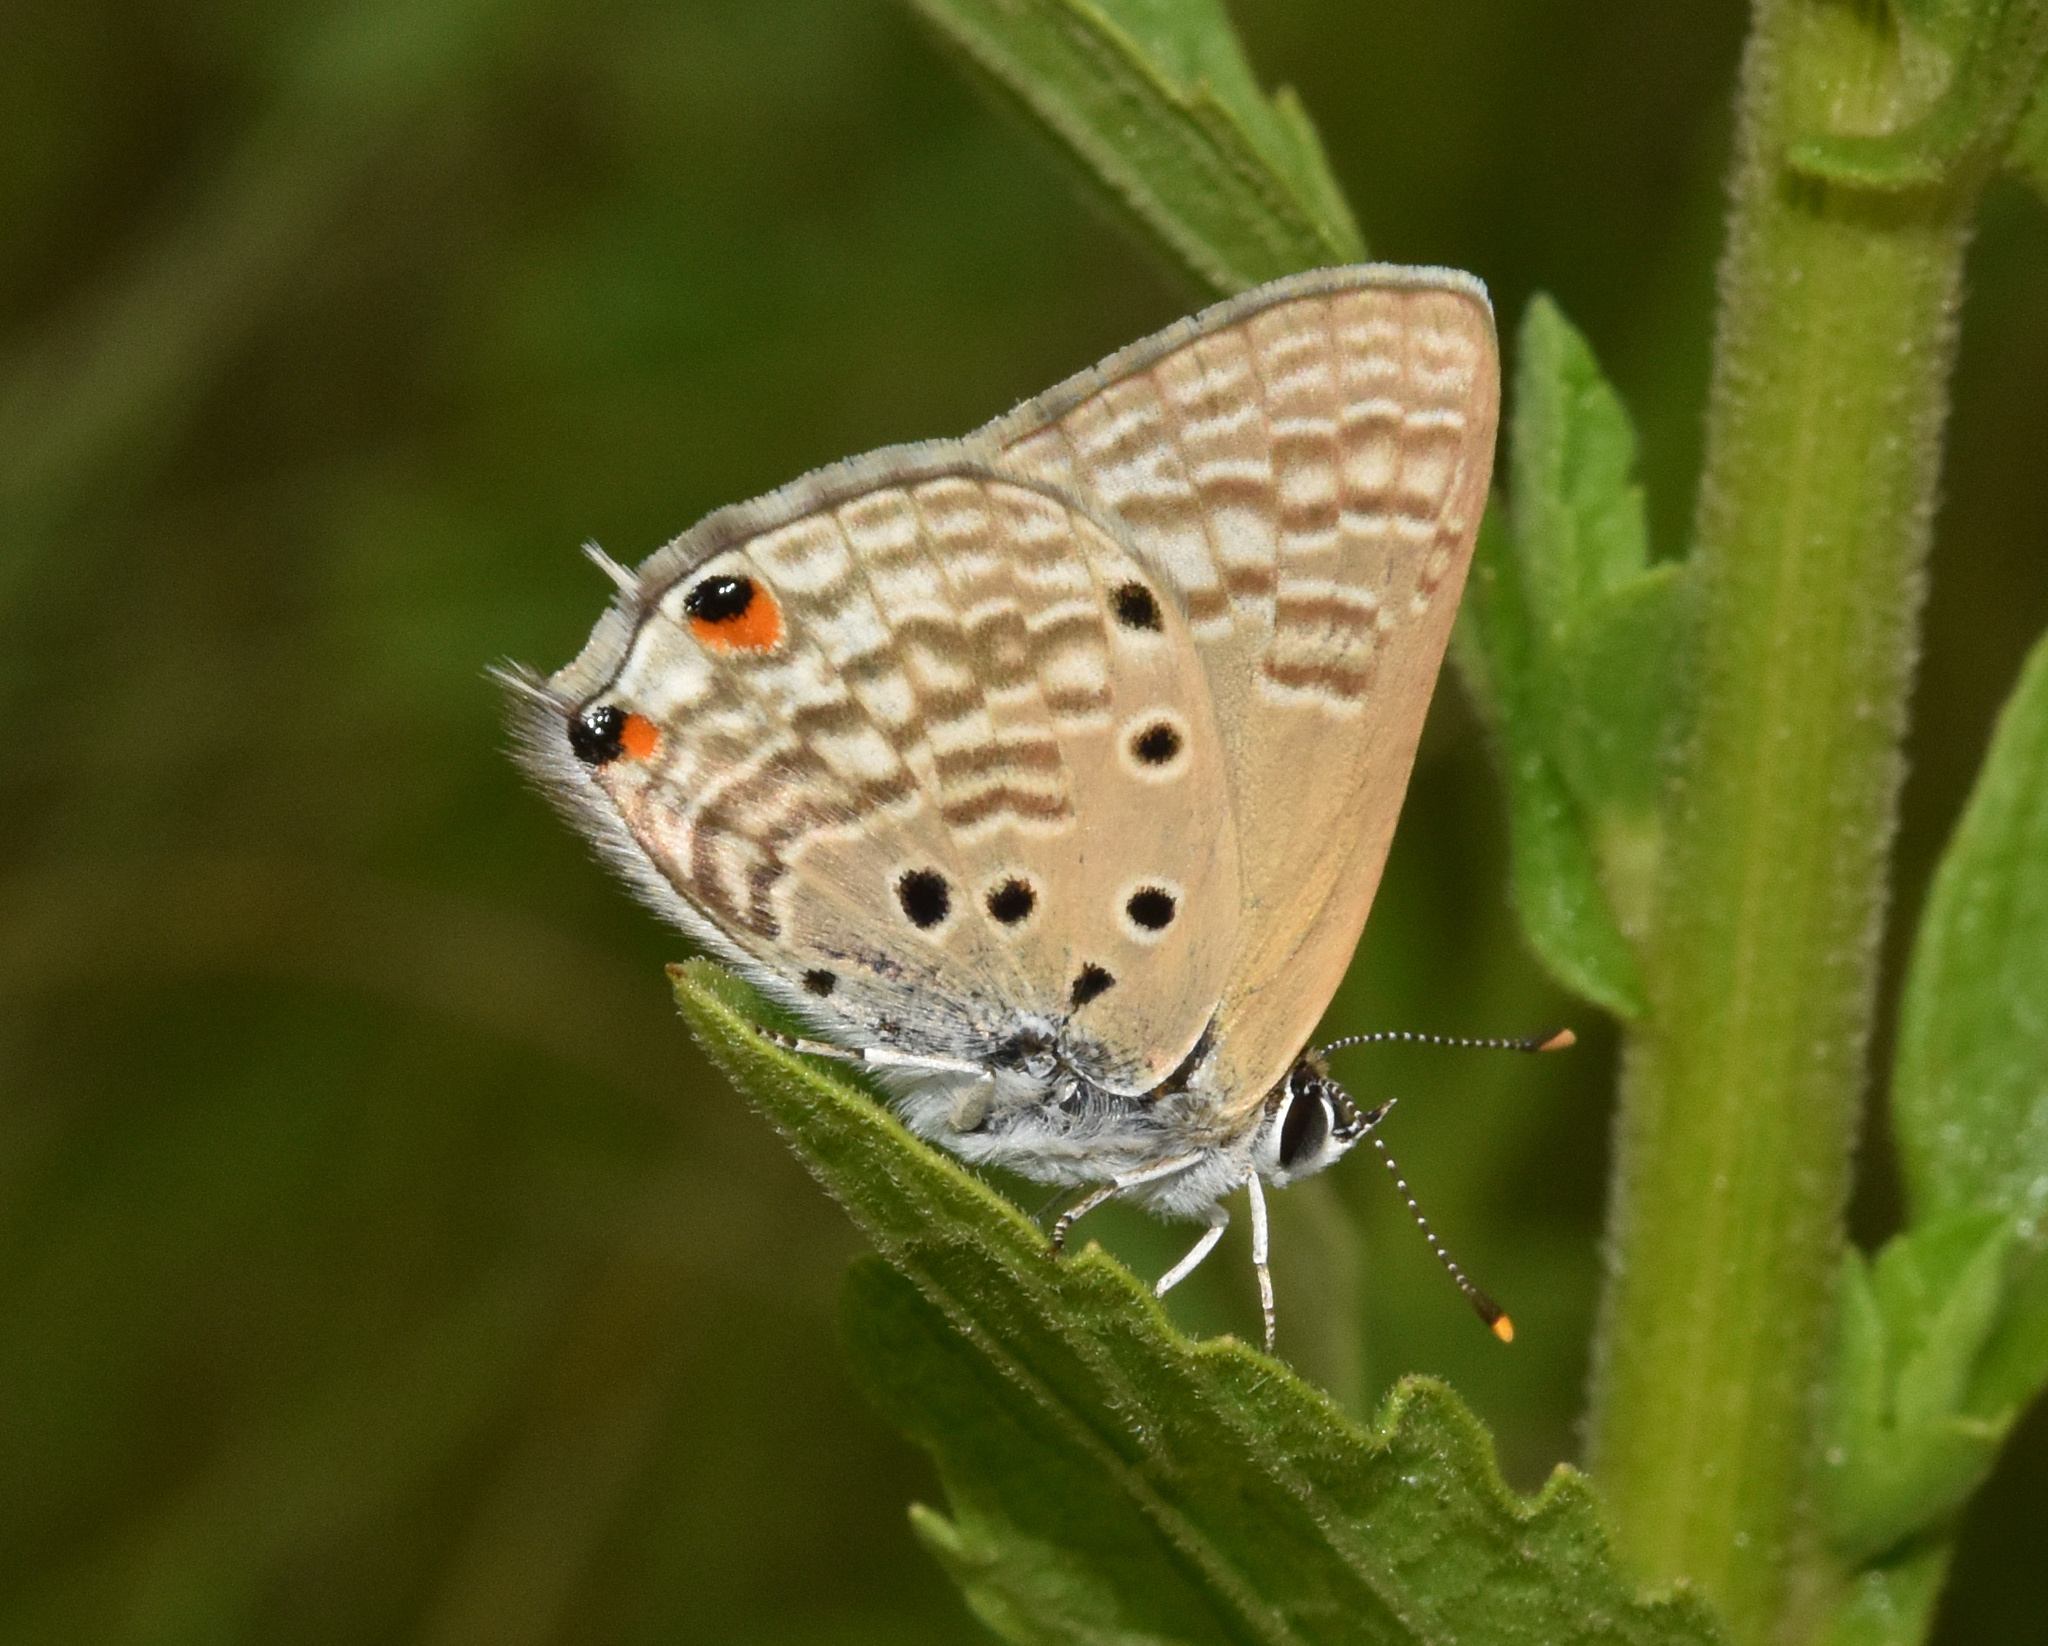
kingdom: Animalia
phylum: Arthropoda
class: Insecta
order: Lepidoptera
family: Lycaenidae
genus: Anthene
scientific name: Anthene amarah
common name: Black-striped hairtail
